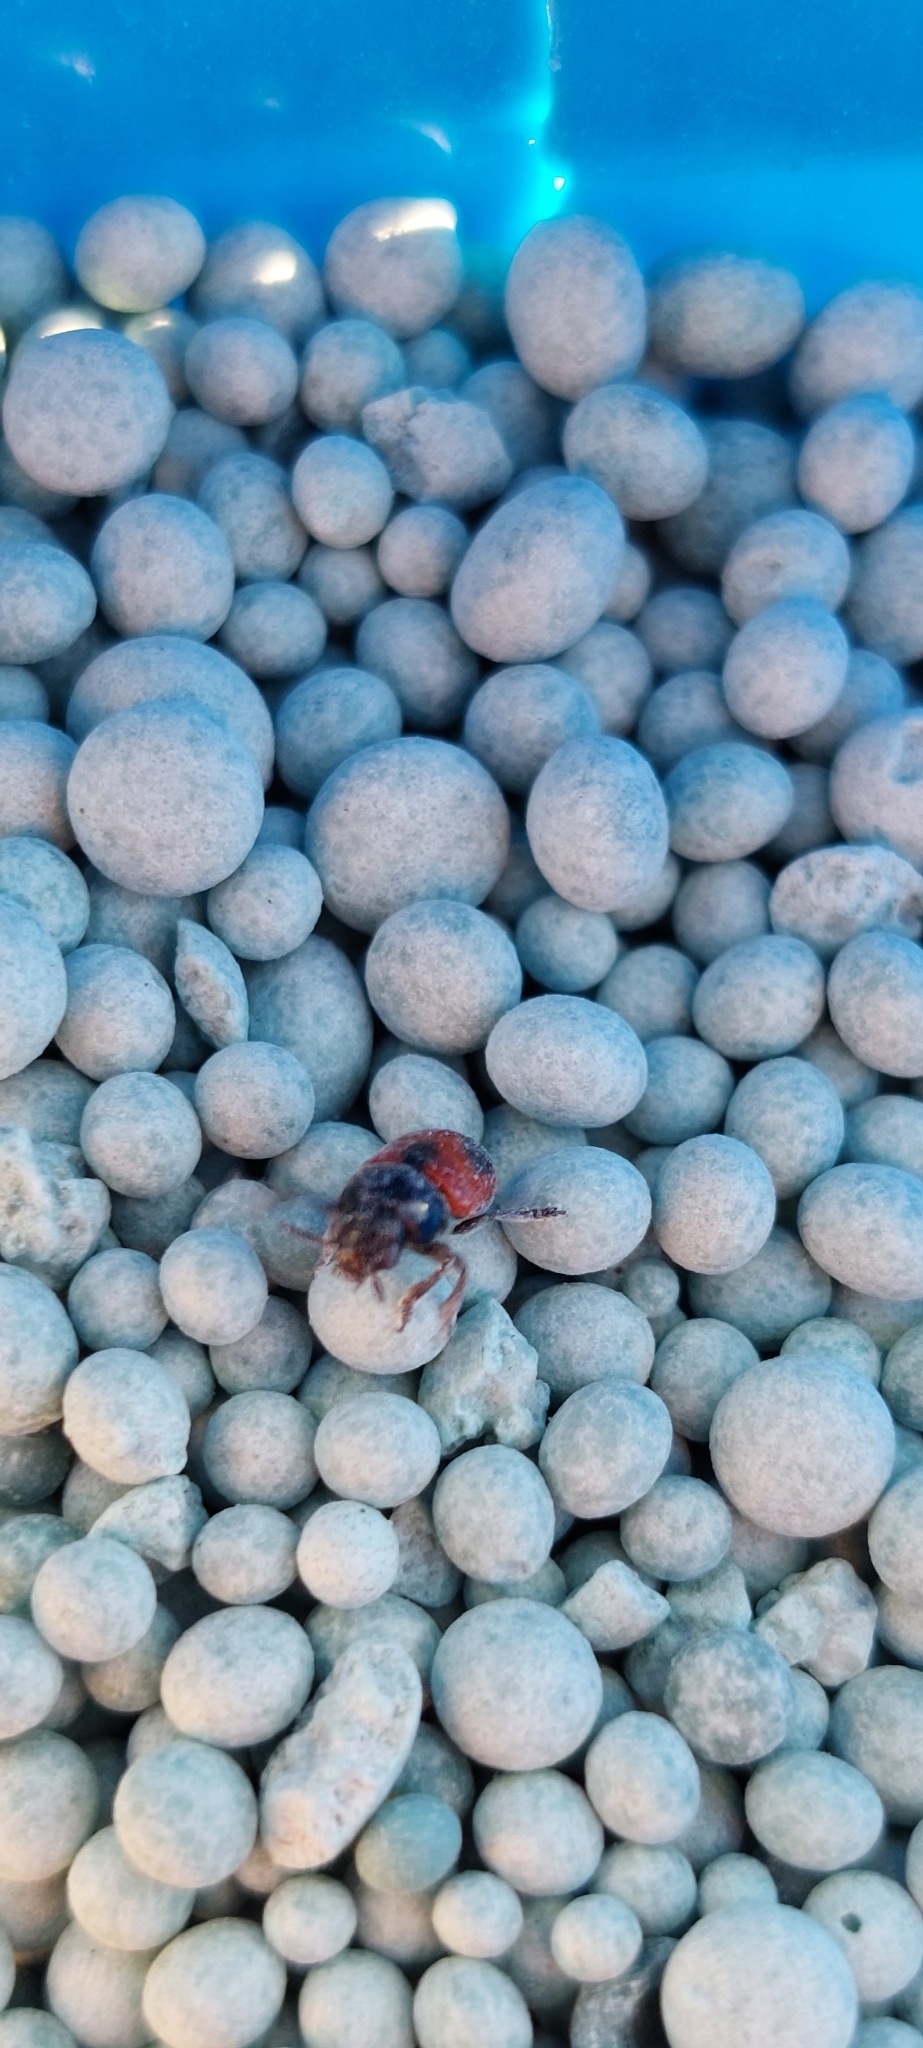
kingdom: Animalia
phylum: Arthropoda
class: Insecta
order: Coleoptera
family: Chrysomelidae
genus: Temnodachrys
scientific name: Temnodachrys
